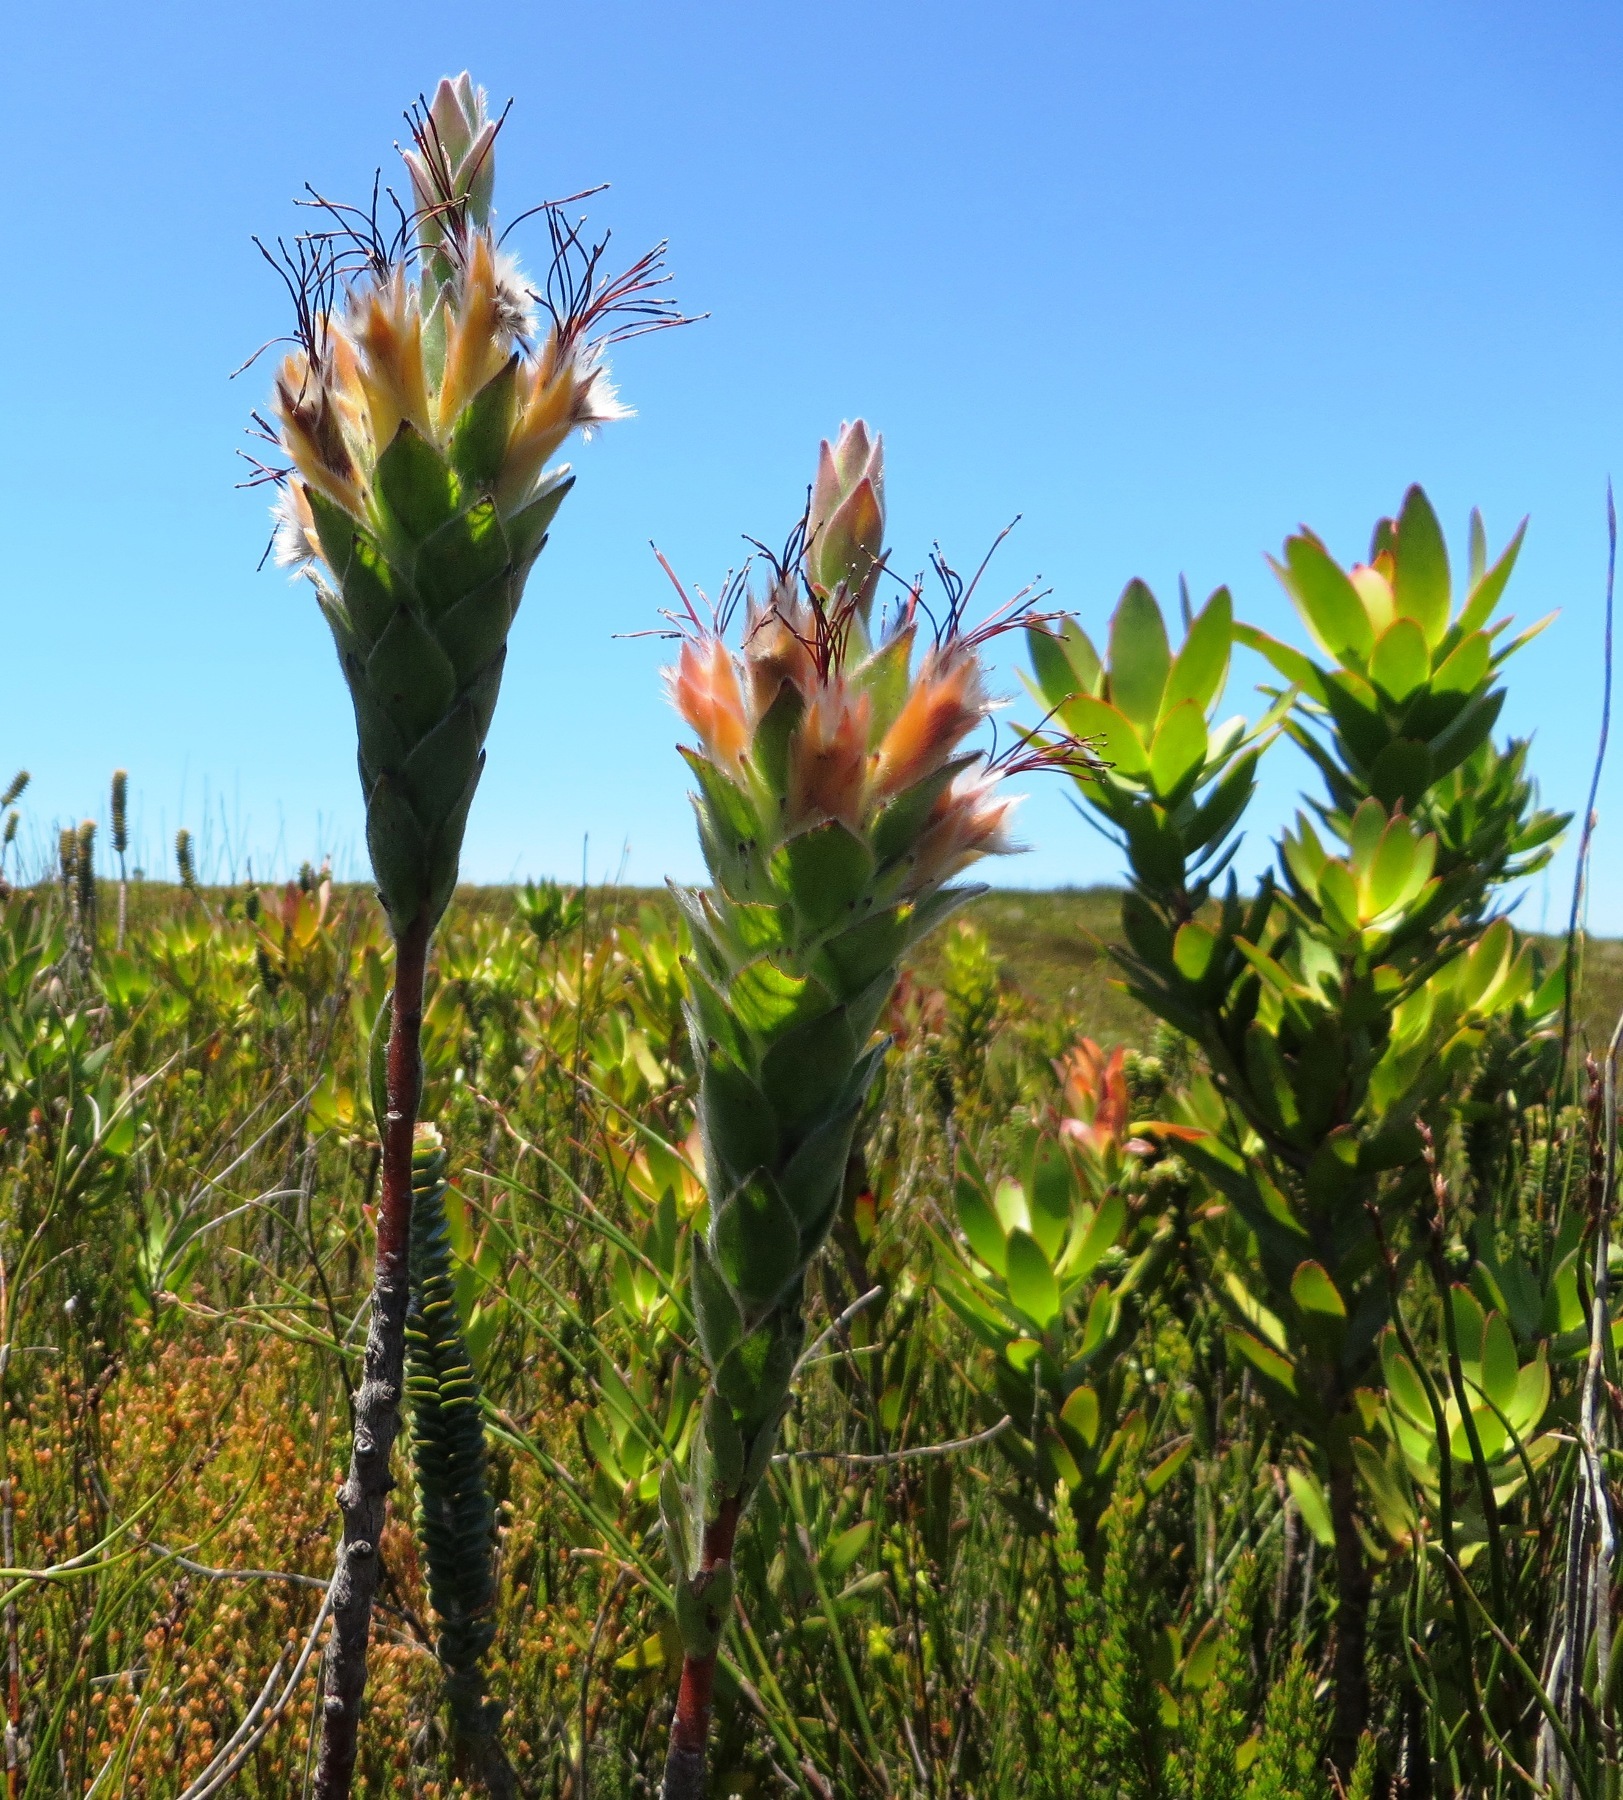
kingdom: Plantae
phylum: Tracheophyta
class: Magnoliopsida
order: Proteales
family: Proteaceae
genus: Mimetes
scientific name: Mimetes capitulatus
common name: Conical pagoda
